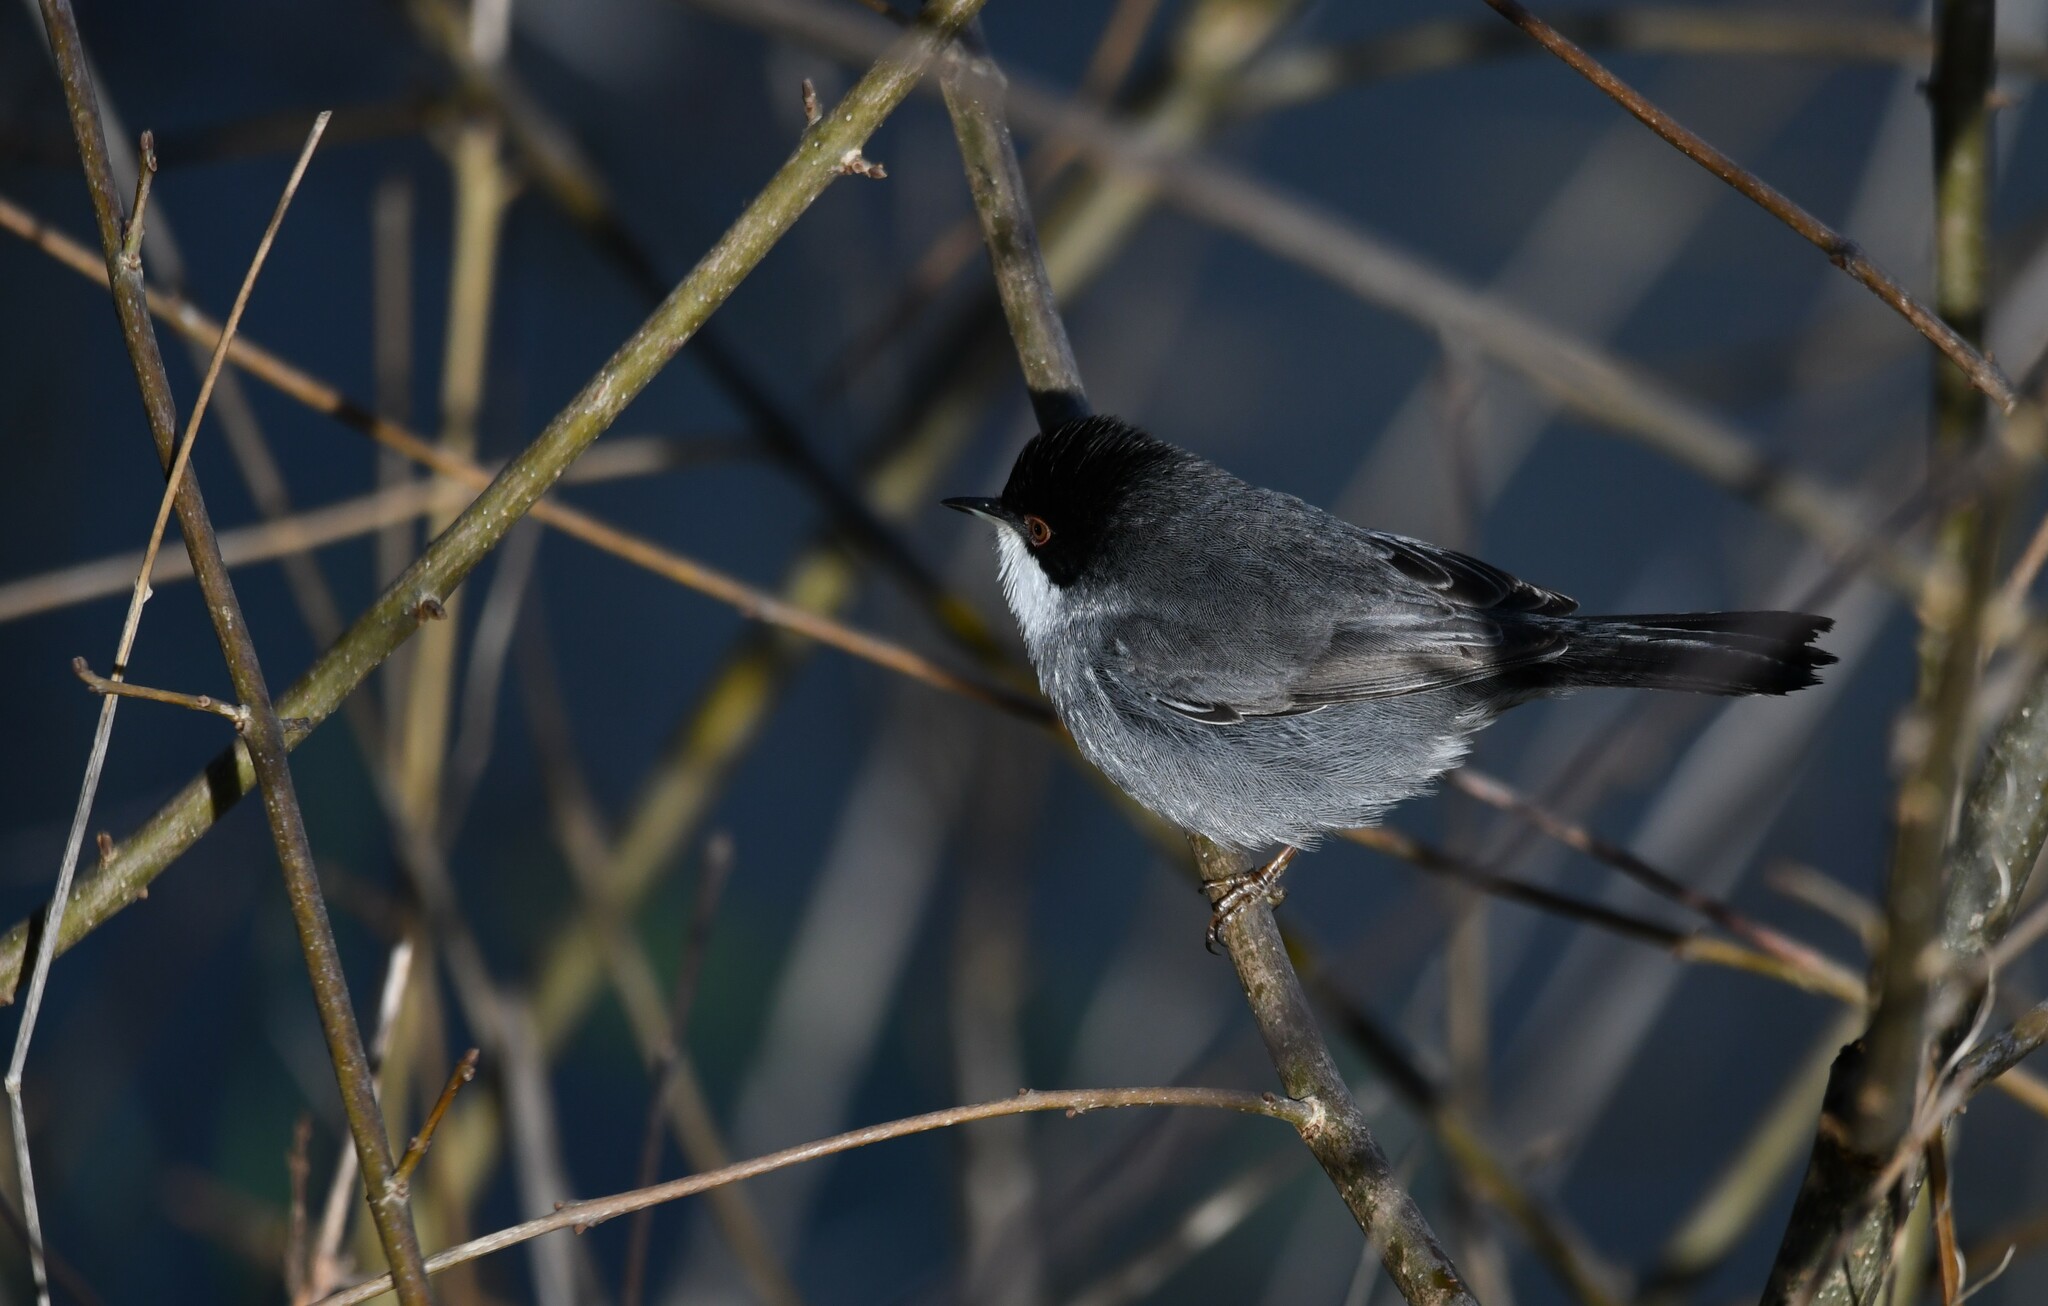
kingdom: Animalia
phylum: Chordata
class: Aves
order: Passeriformes
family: Sylviidae
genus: Curruca
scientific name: Curruca melanocephala
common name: Sardinian warbler
